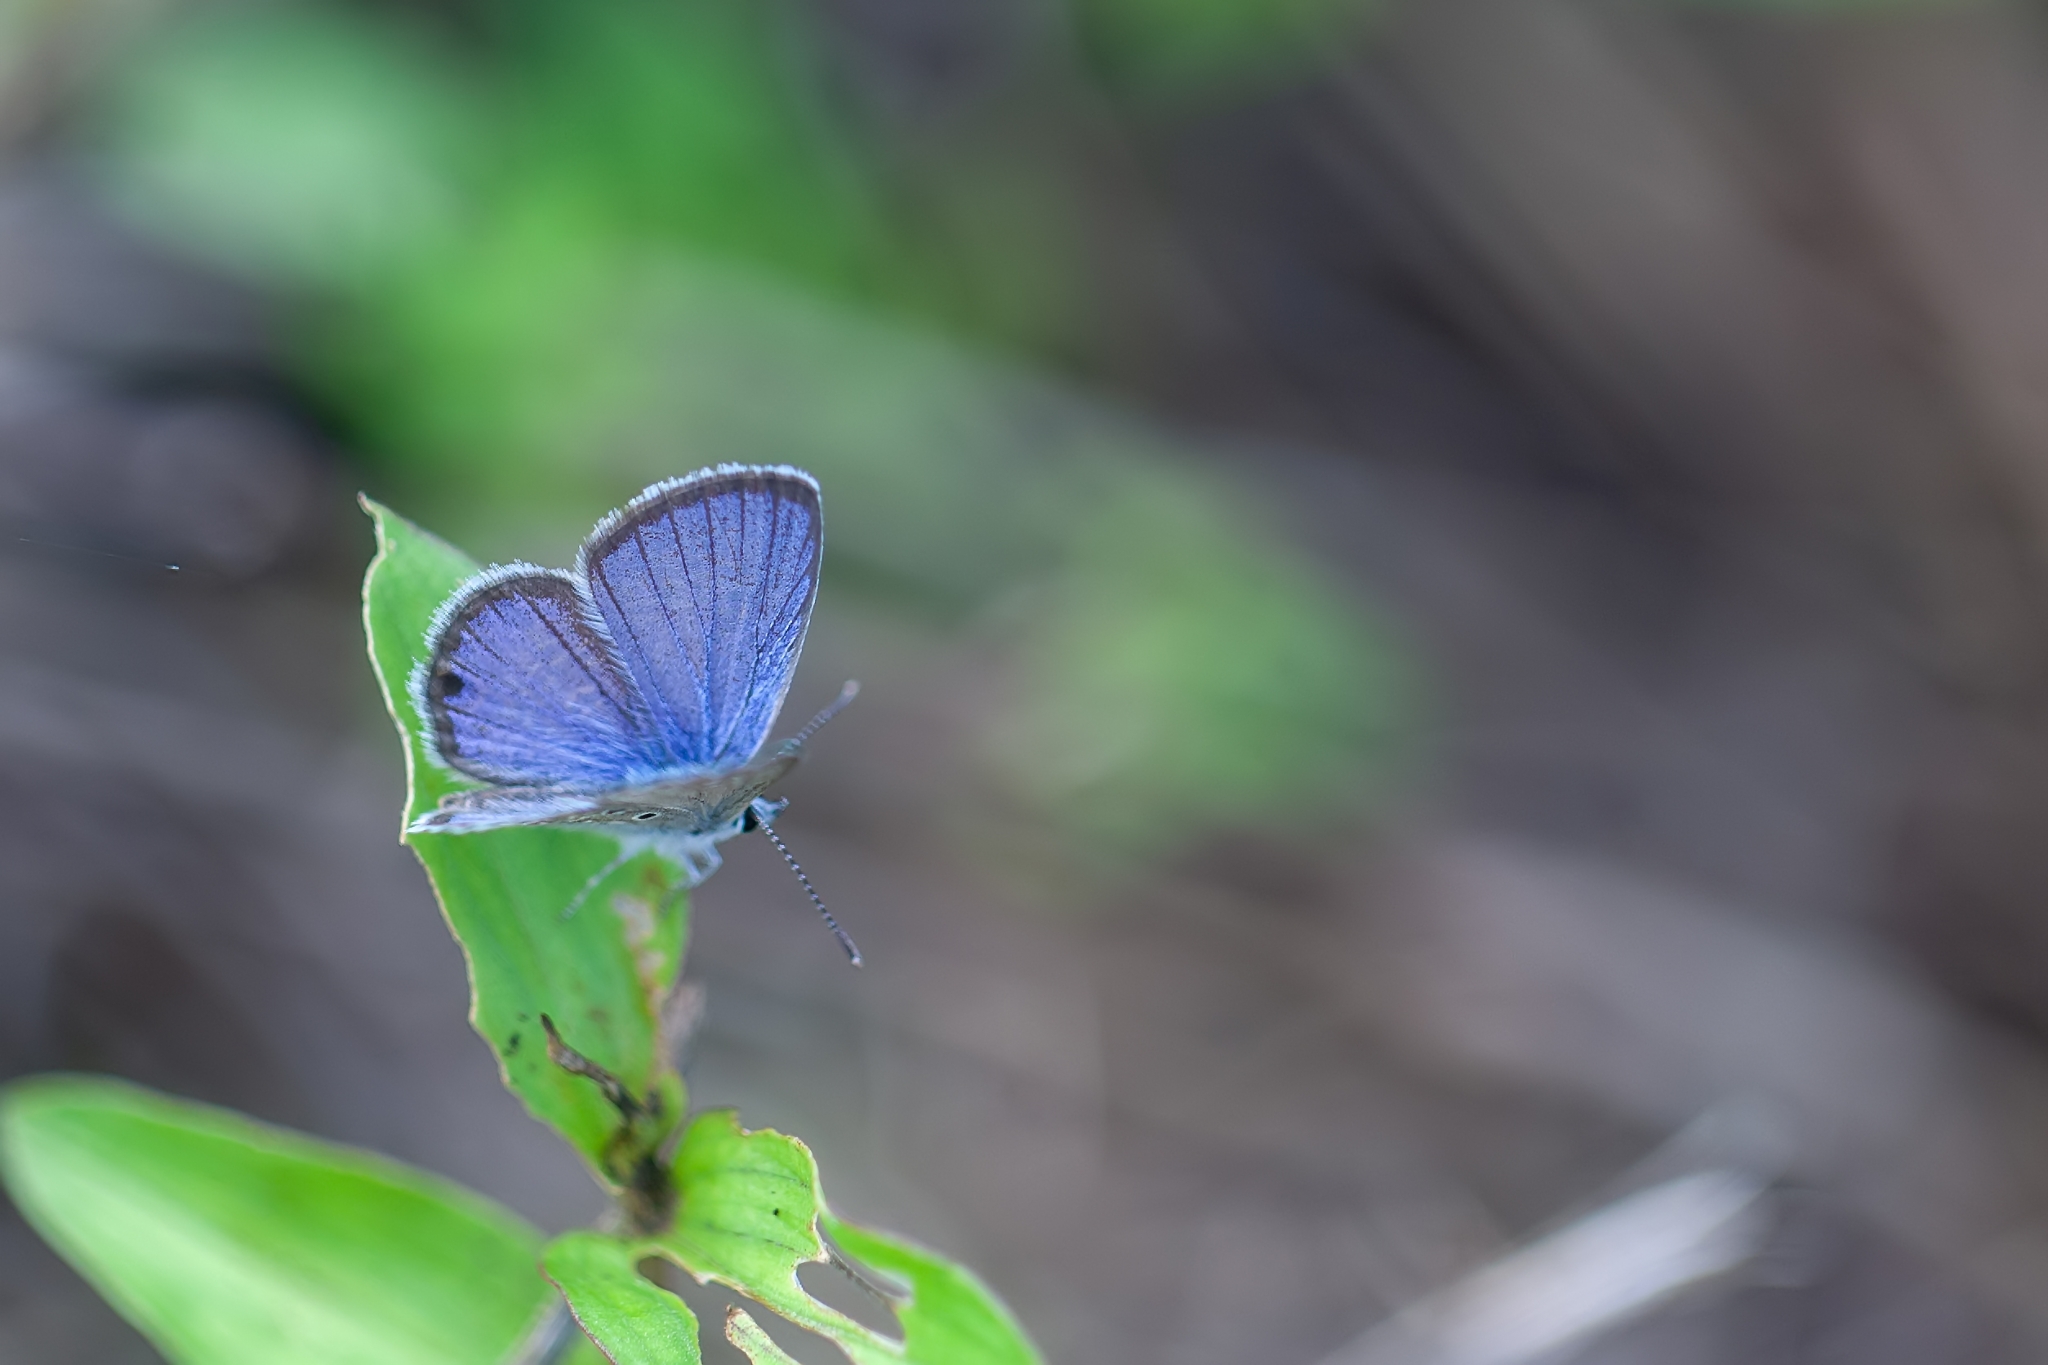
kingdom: Animalia
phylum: Arthropoda
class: Insecta
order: Lepidoptera
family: Lycaenidae
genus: Hemiargus
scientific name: Hemiargus ceraunus
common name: Ceraunus blue
